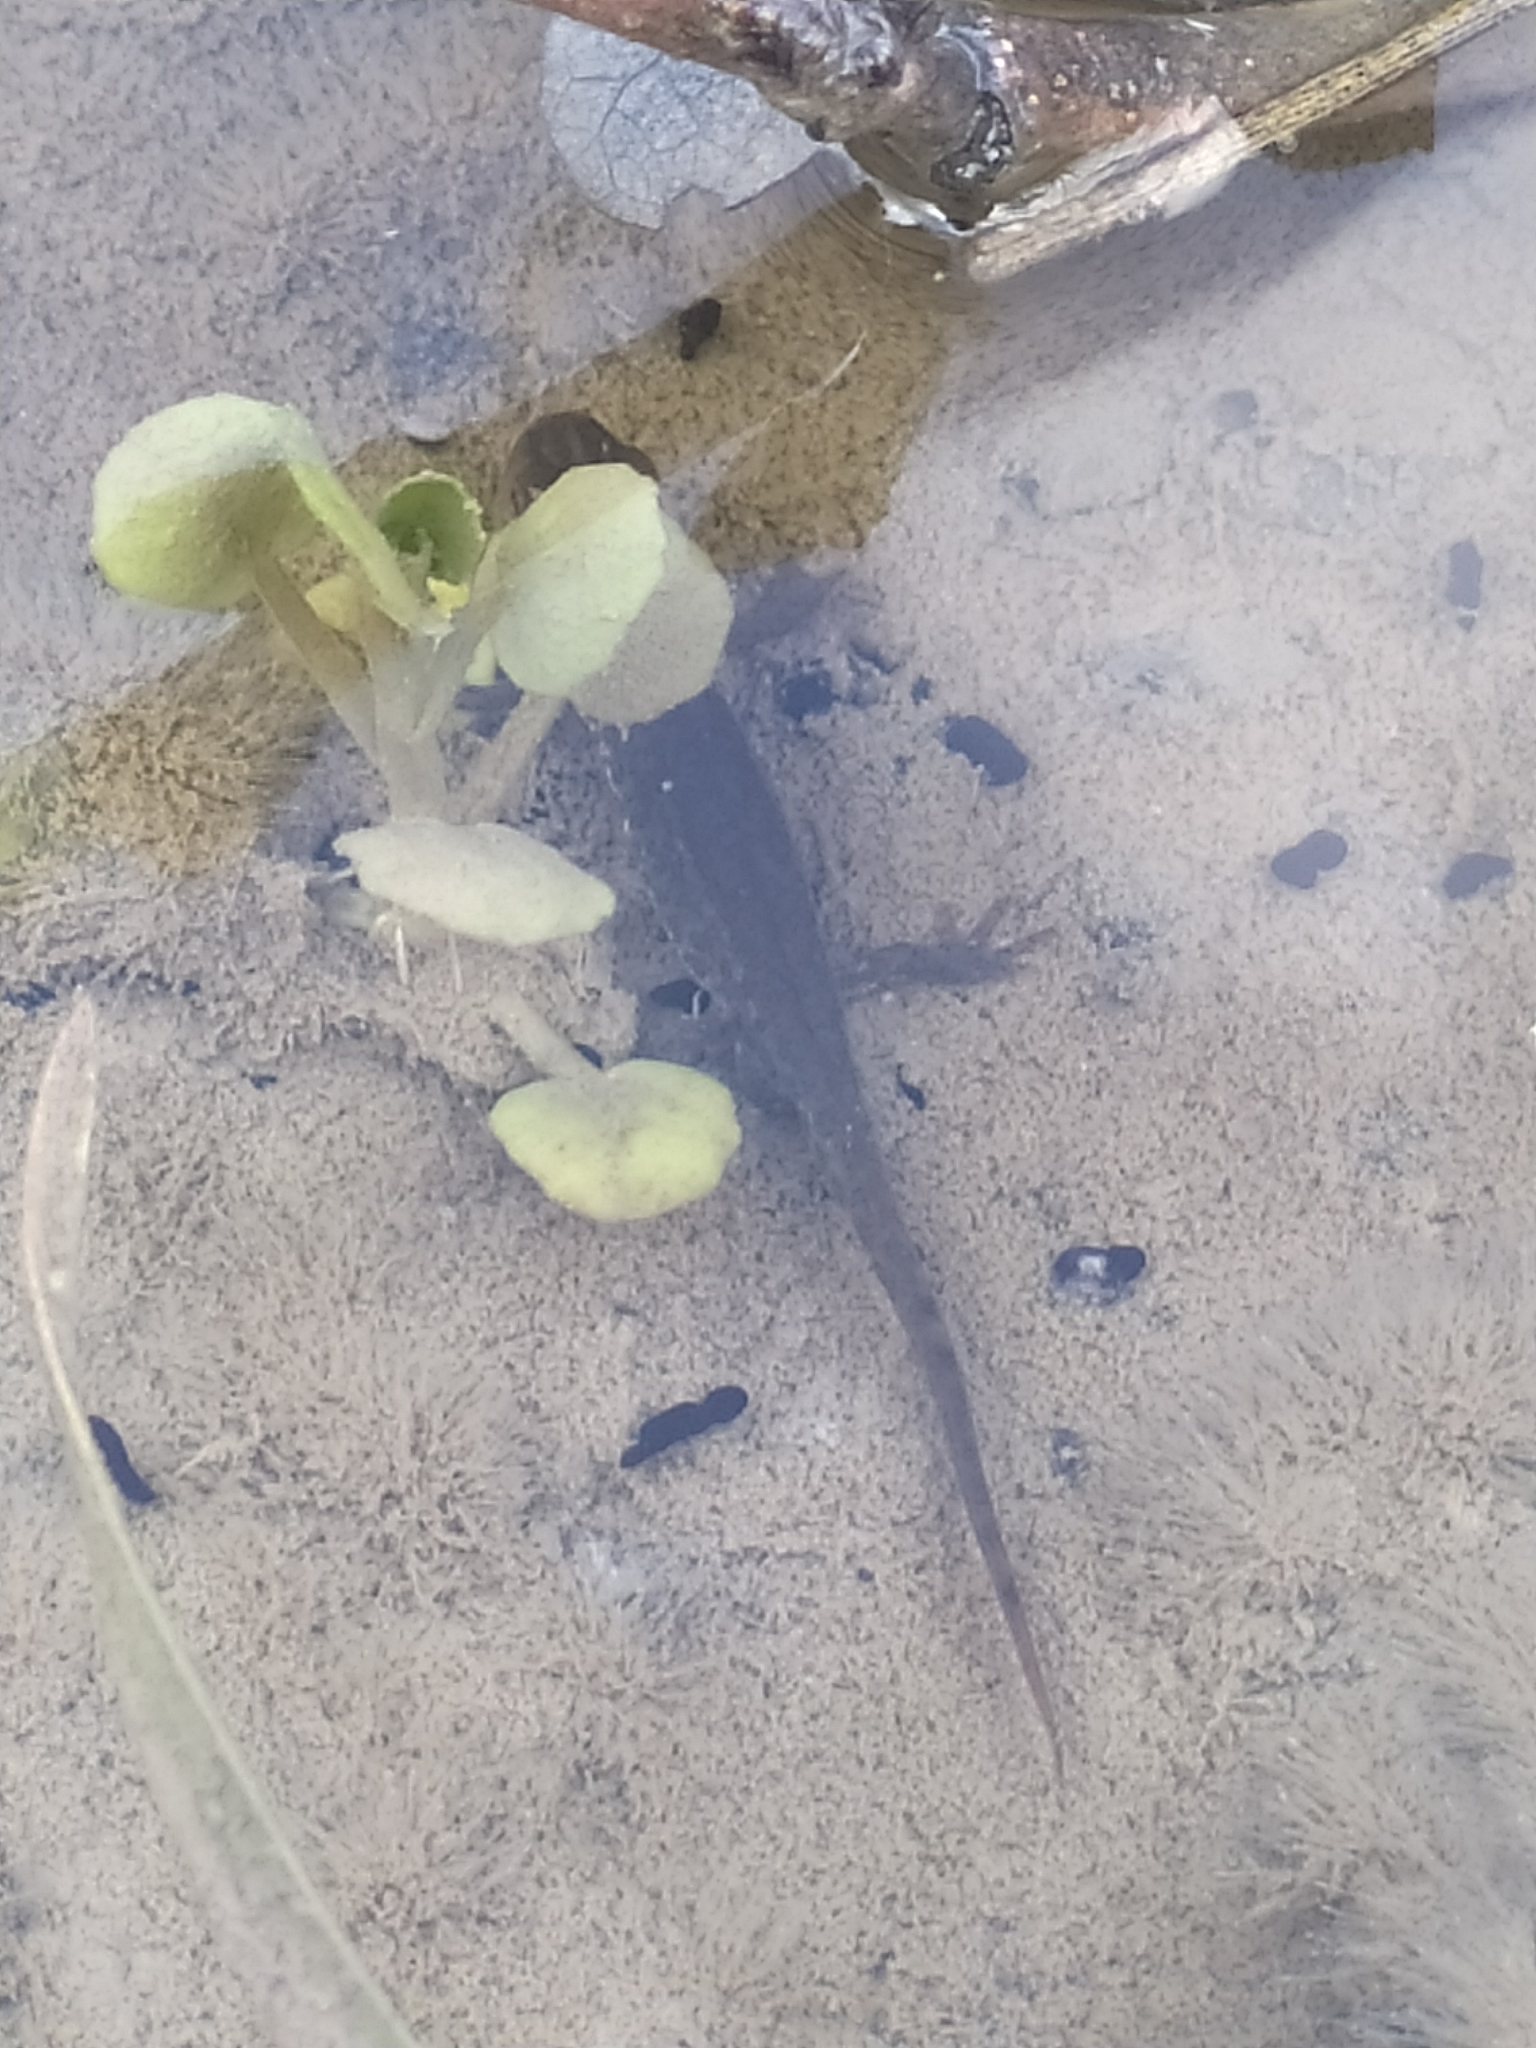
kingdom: Animalia
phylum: Chordata
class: Amphibia
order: Caudata
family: Salamandridae
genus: Lissotriton
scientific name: Lissotriton italicus
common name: Italian newt
